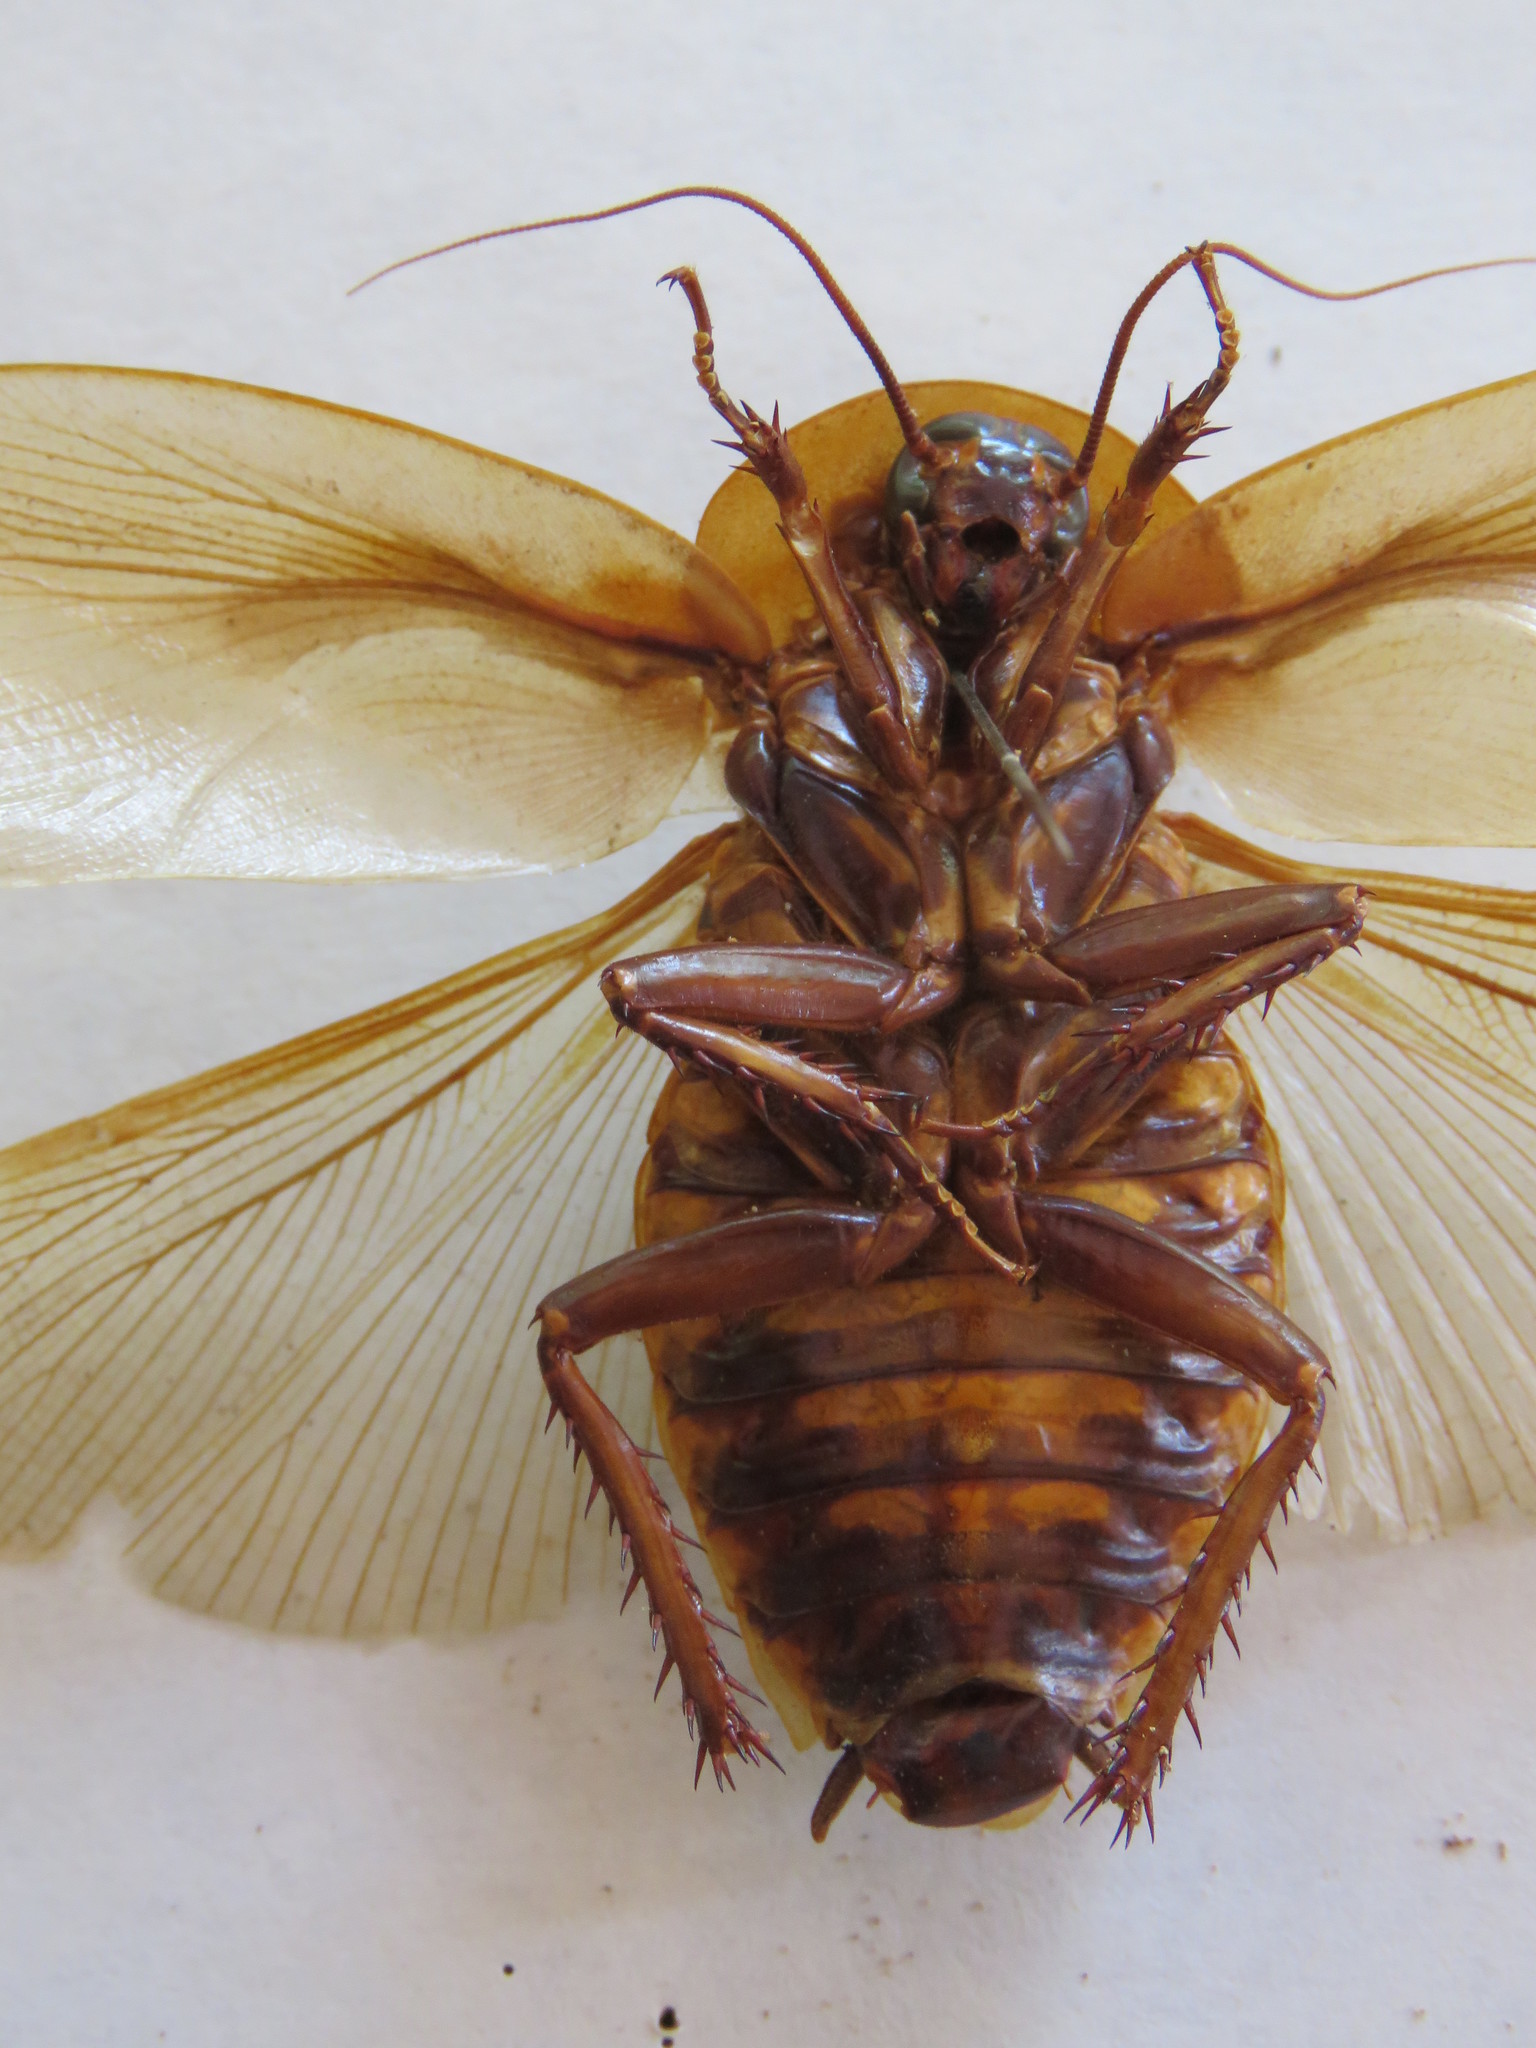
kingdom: Animalia
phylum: Arthropoda
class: Insecta
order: Blattodea
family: Blaberidae
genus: Blaberus
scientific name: Blaberus discoidalis
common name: Discoid cockroach
